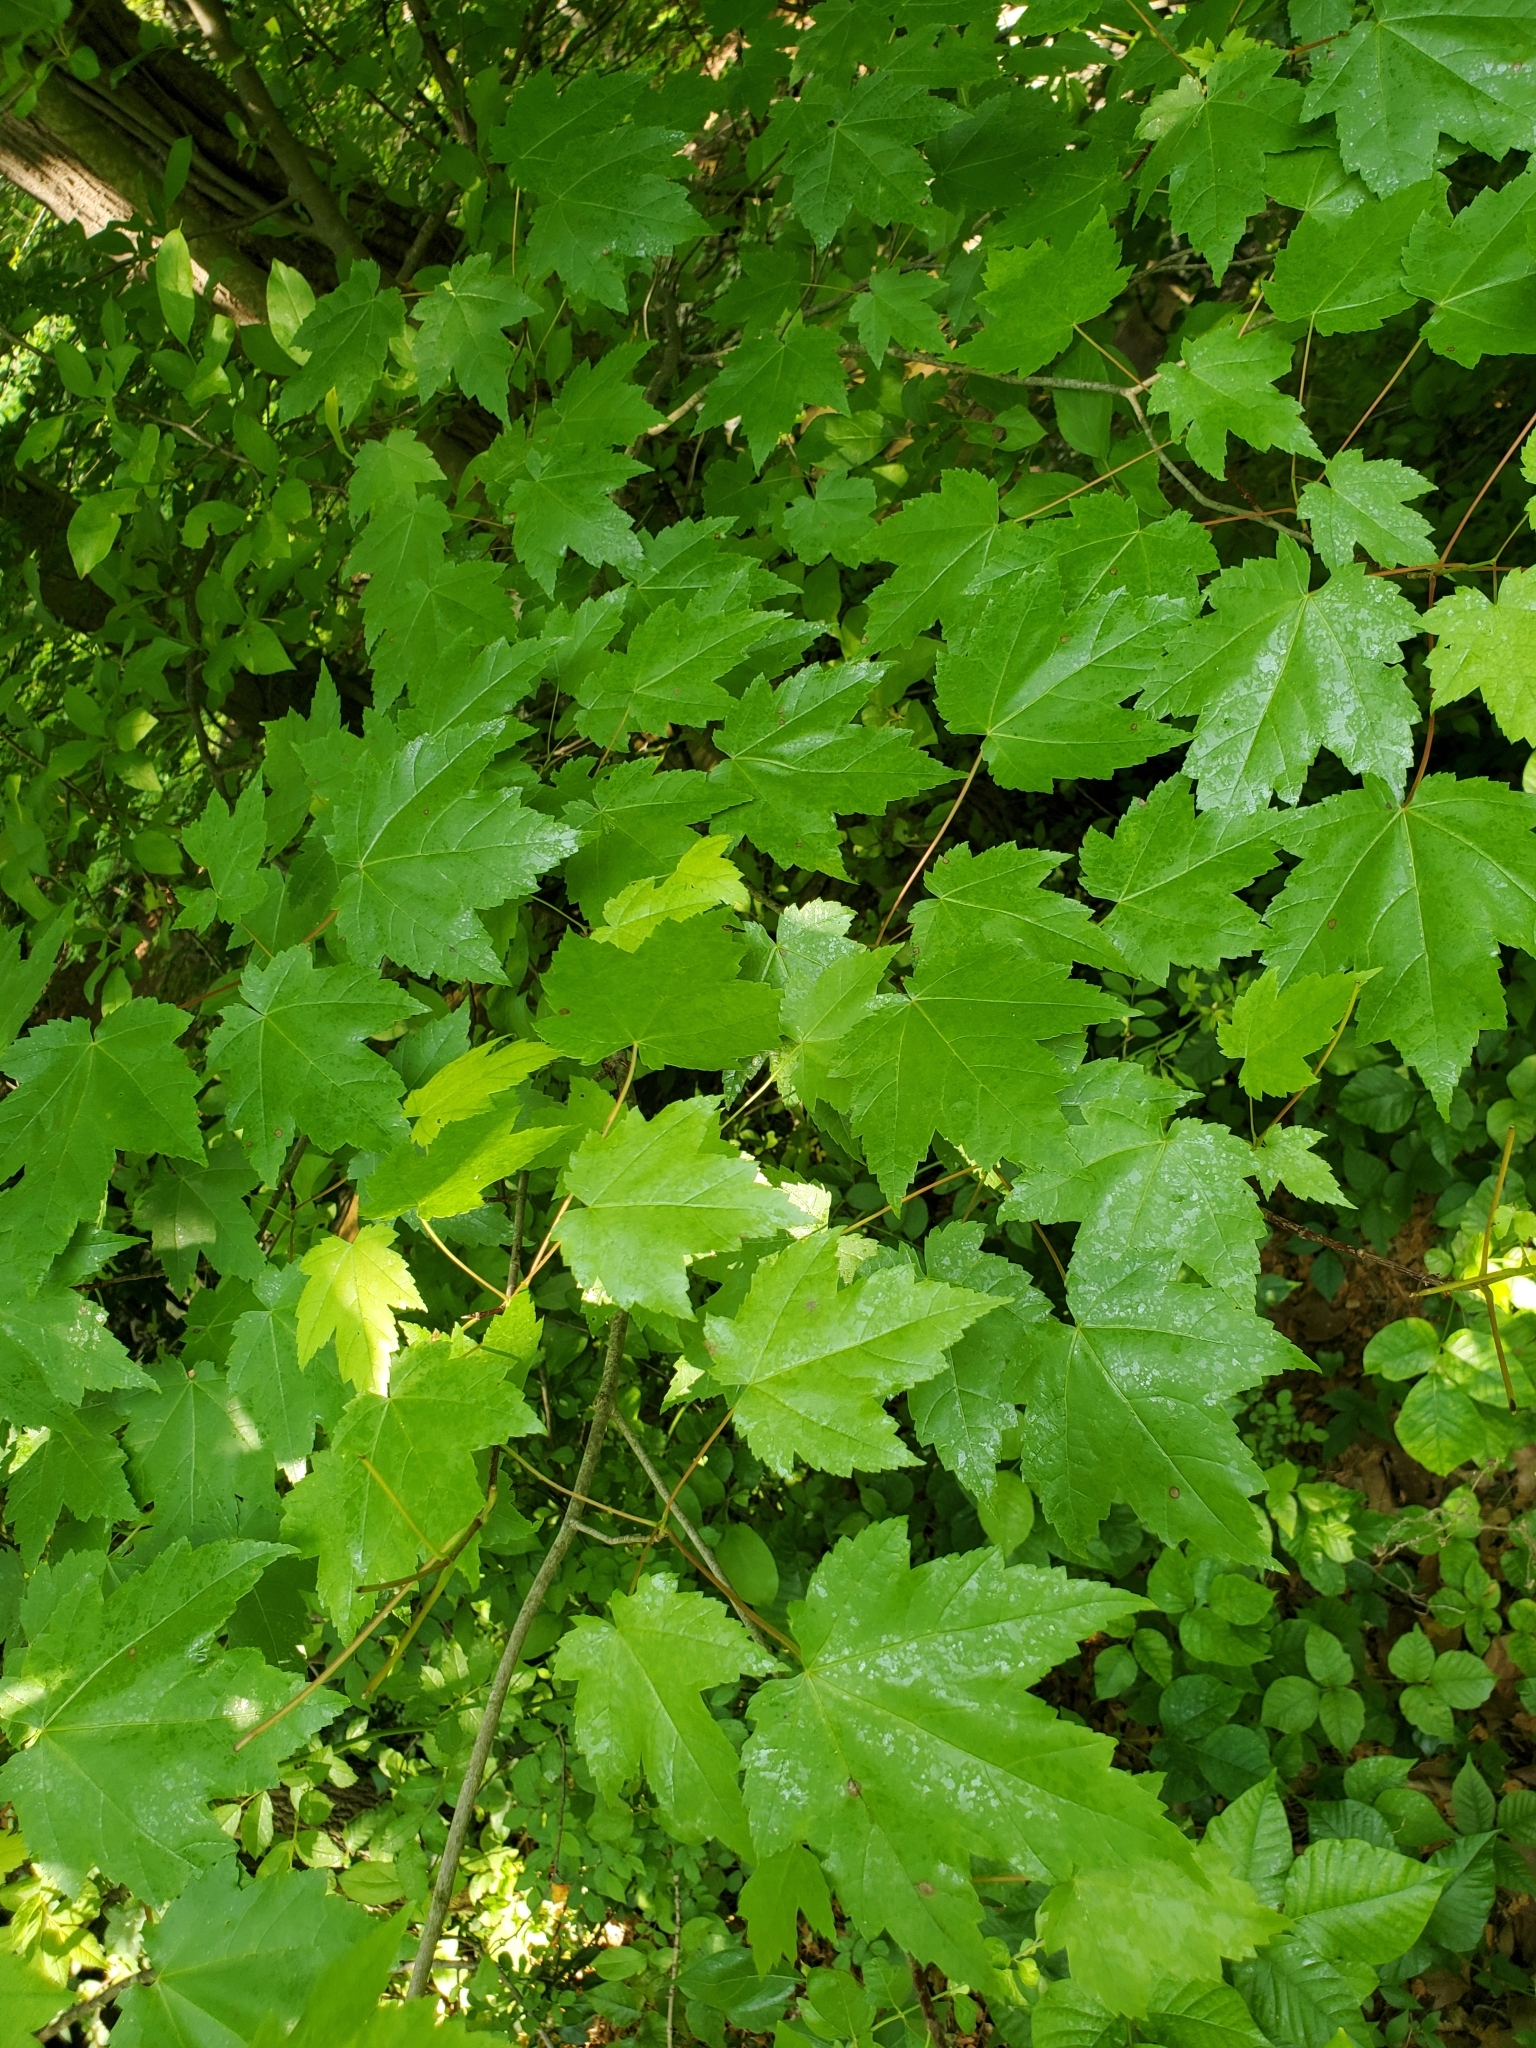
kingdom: Plantae
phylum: Tracheophyta
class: Magnoliopsida
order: Sapindales
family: Sapindaceae
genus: Acer
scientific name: Acer rubrum
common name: Red maple
